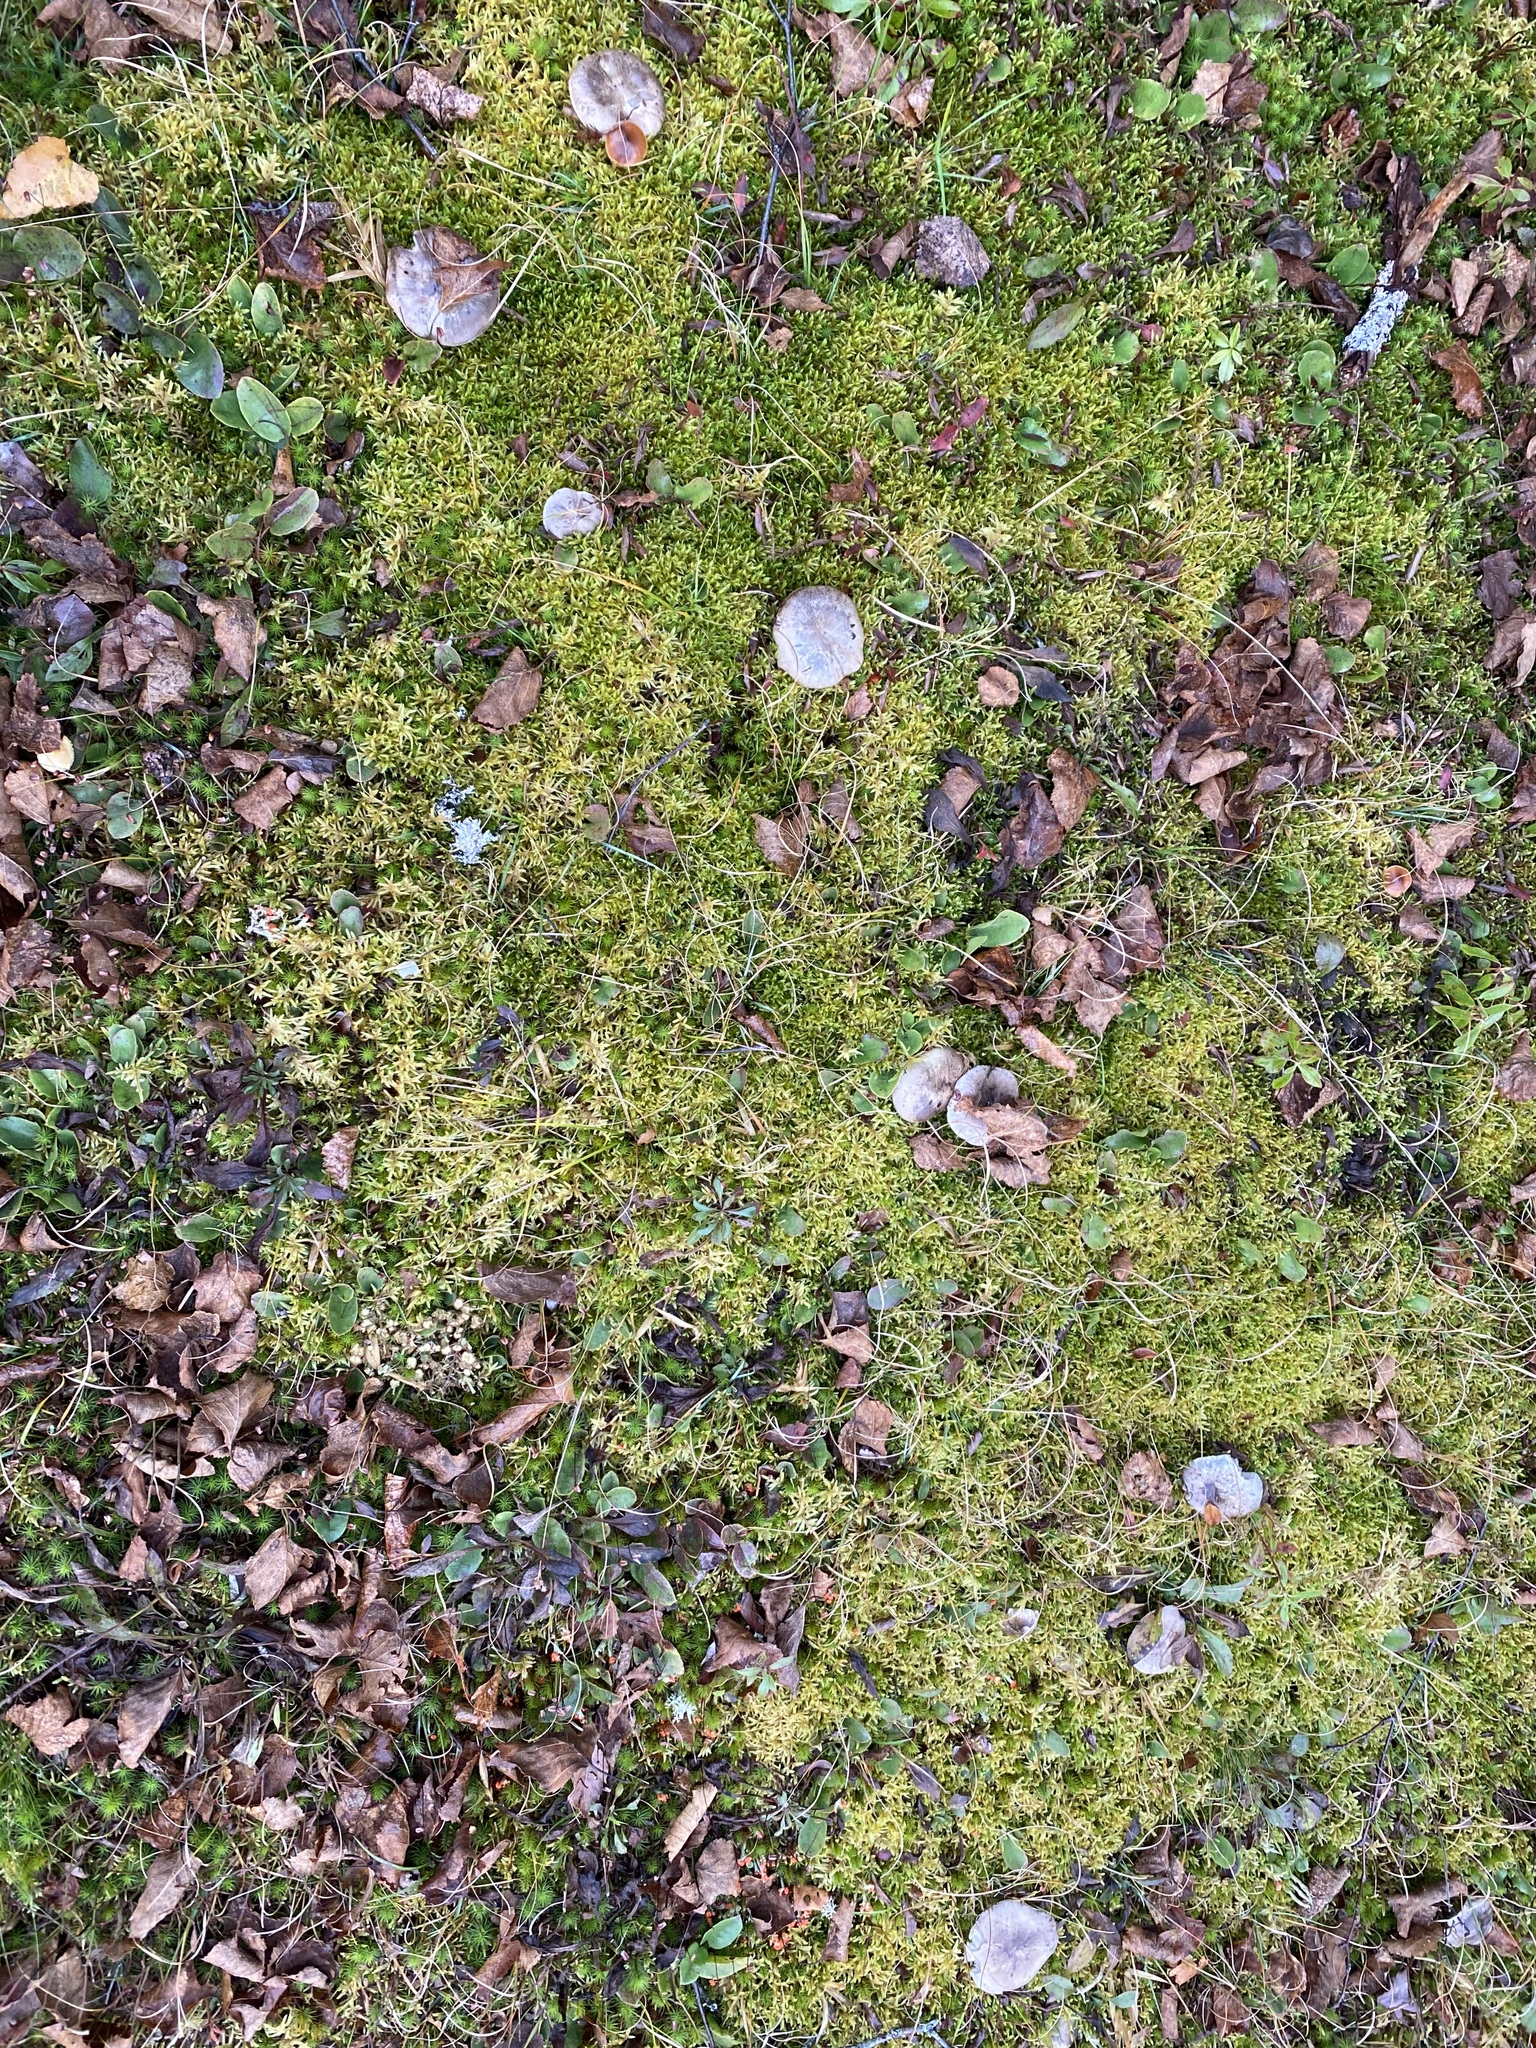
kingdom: Plantae
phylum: Bryophyta
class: Bryopsida
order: Hypnales
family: Hylocomiaceae
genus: Pleurozium
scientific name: Pleurozium schreberi
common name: Red-stemmed feather moss
